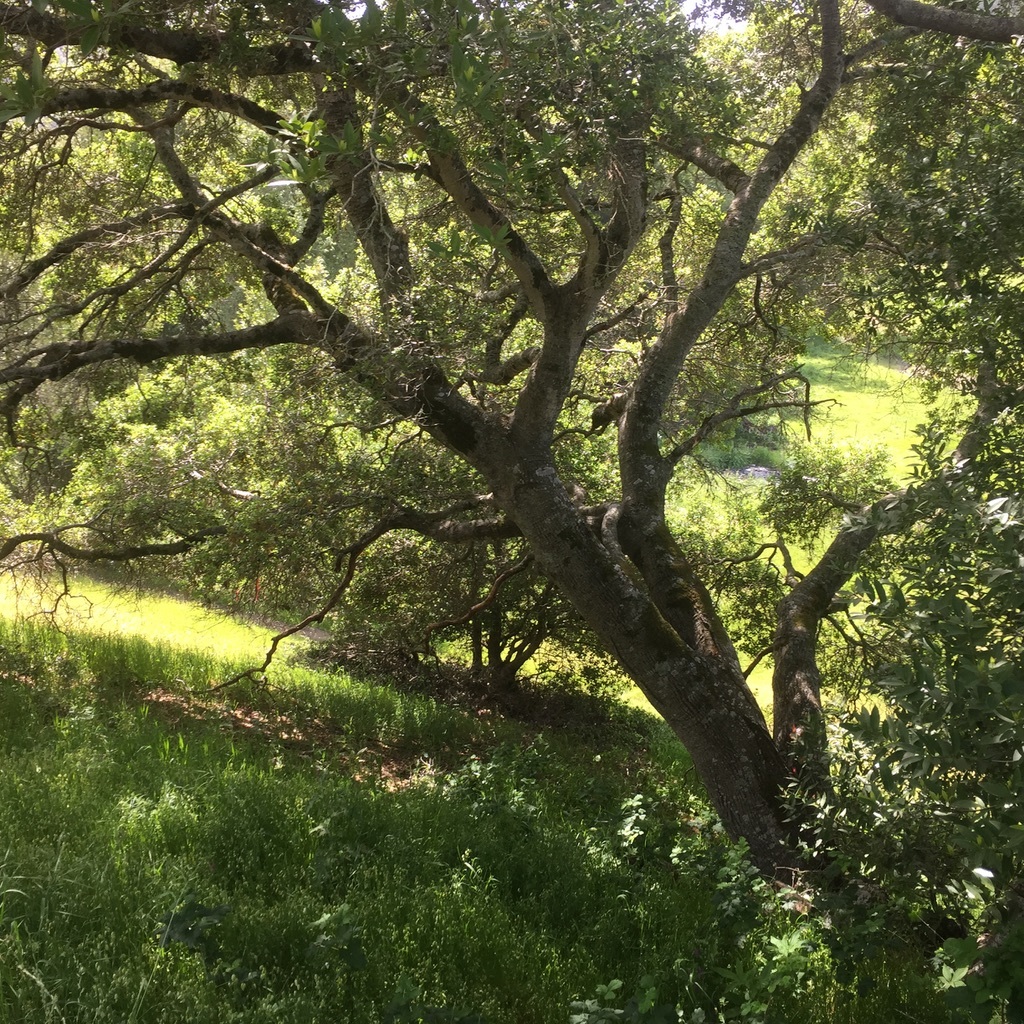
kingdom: Plantae
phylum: Tracheophyta
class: Magnoliopsida
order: Fagales
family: Fagaceae
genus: Quercus
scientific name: Quercus agrifolia
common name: California live oak
